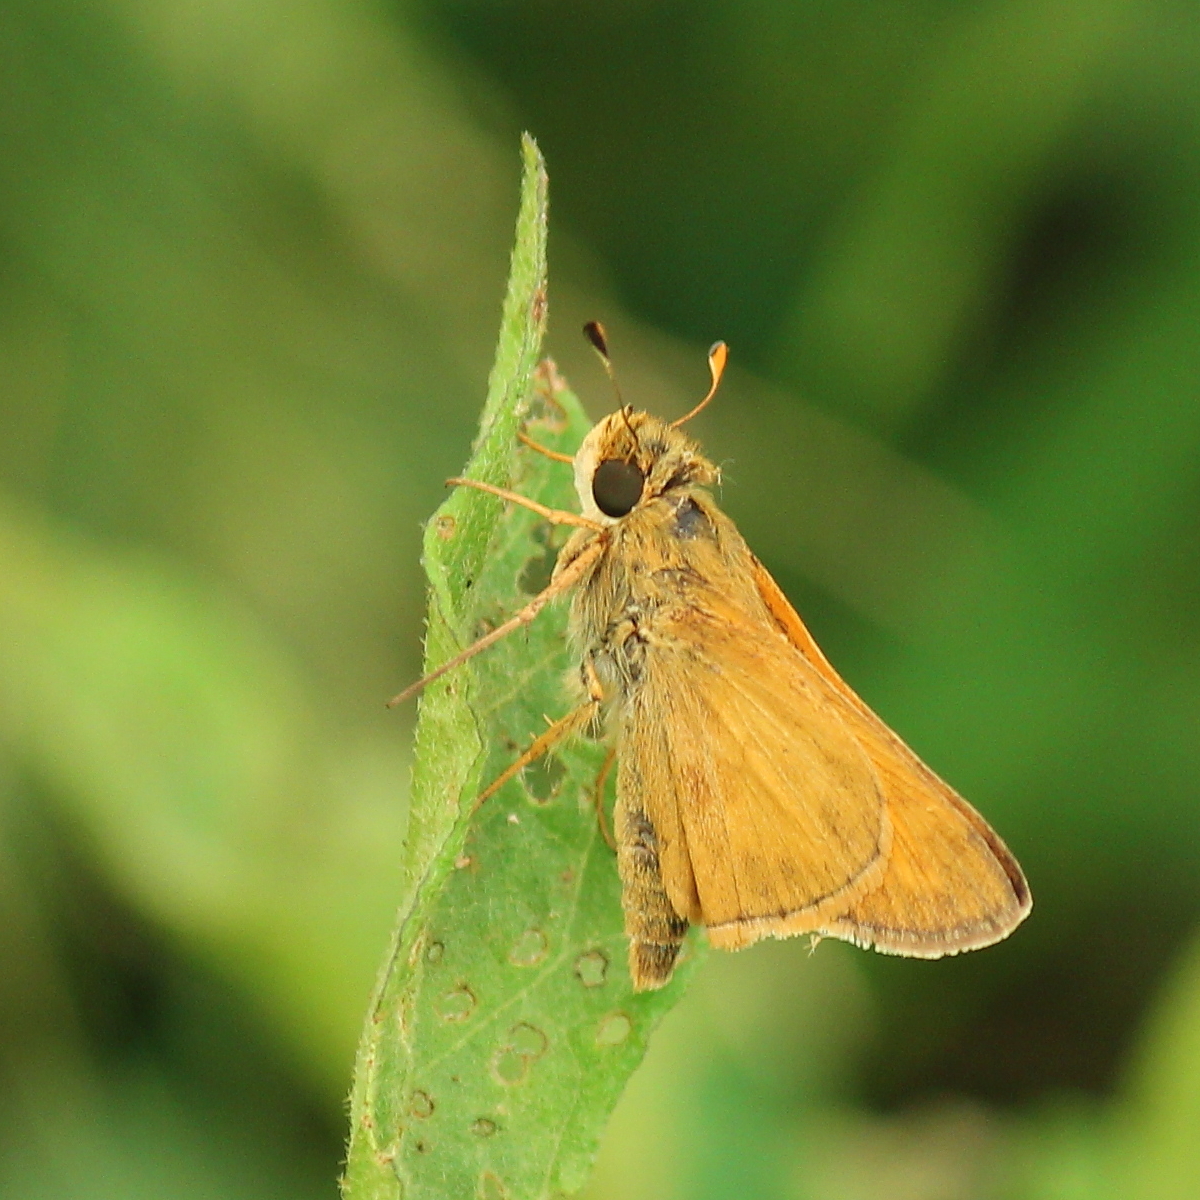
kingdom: Animalia
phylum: Arthropoda
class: Insecta
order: Lepidoptera
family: Hesperiidae
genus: Atalopedes
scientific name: Atalopedes
